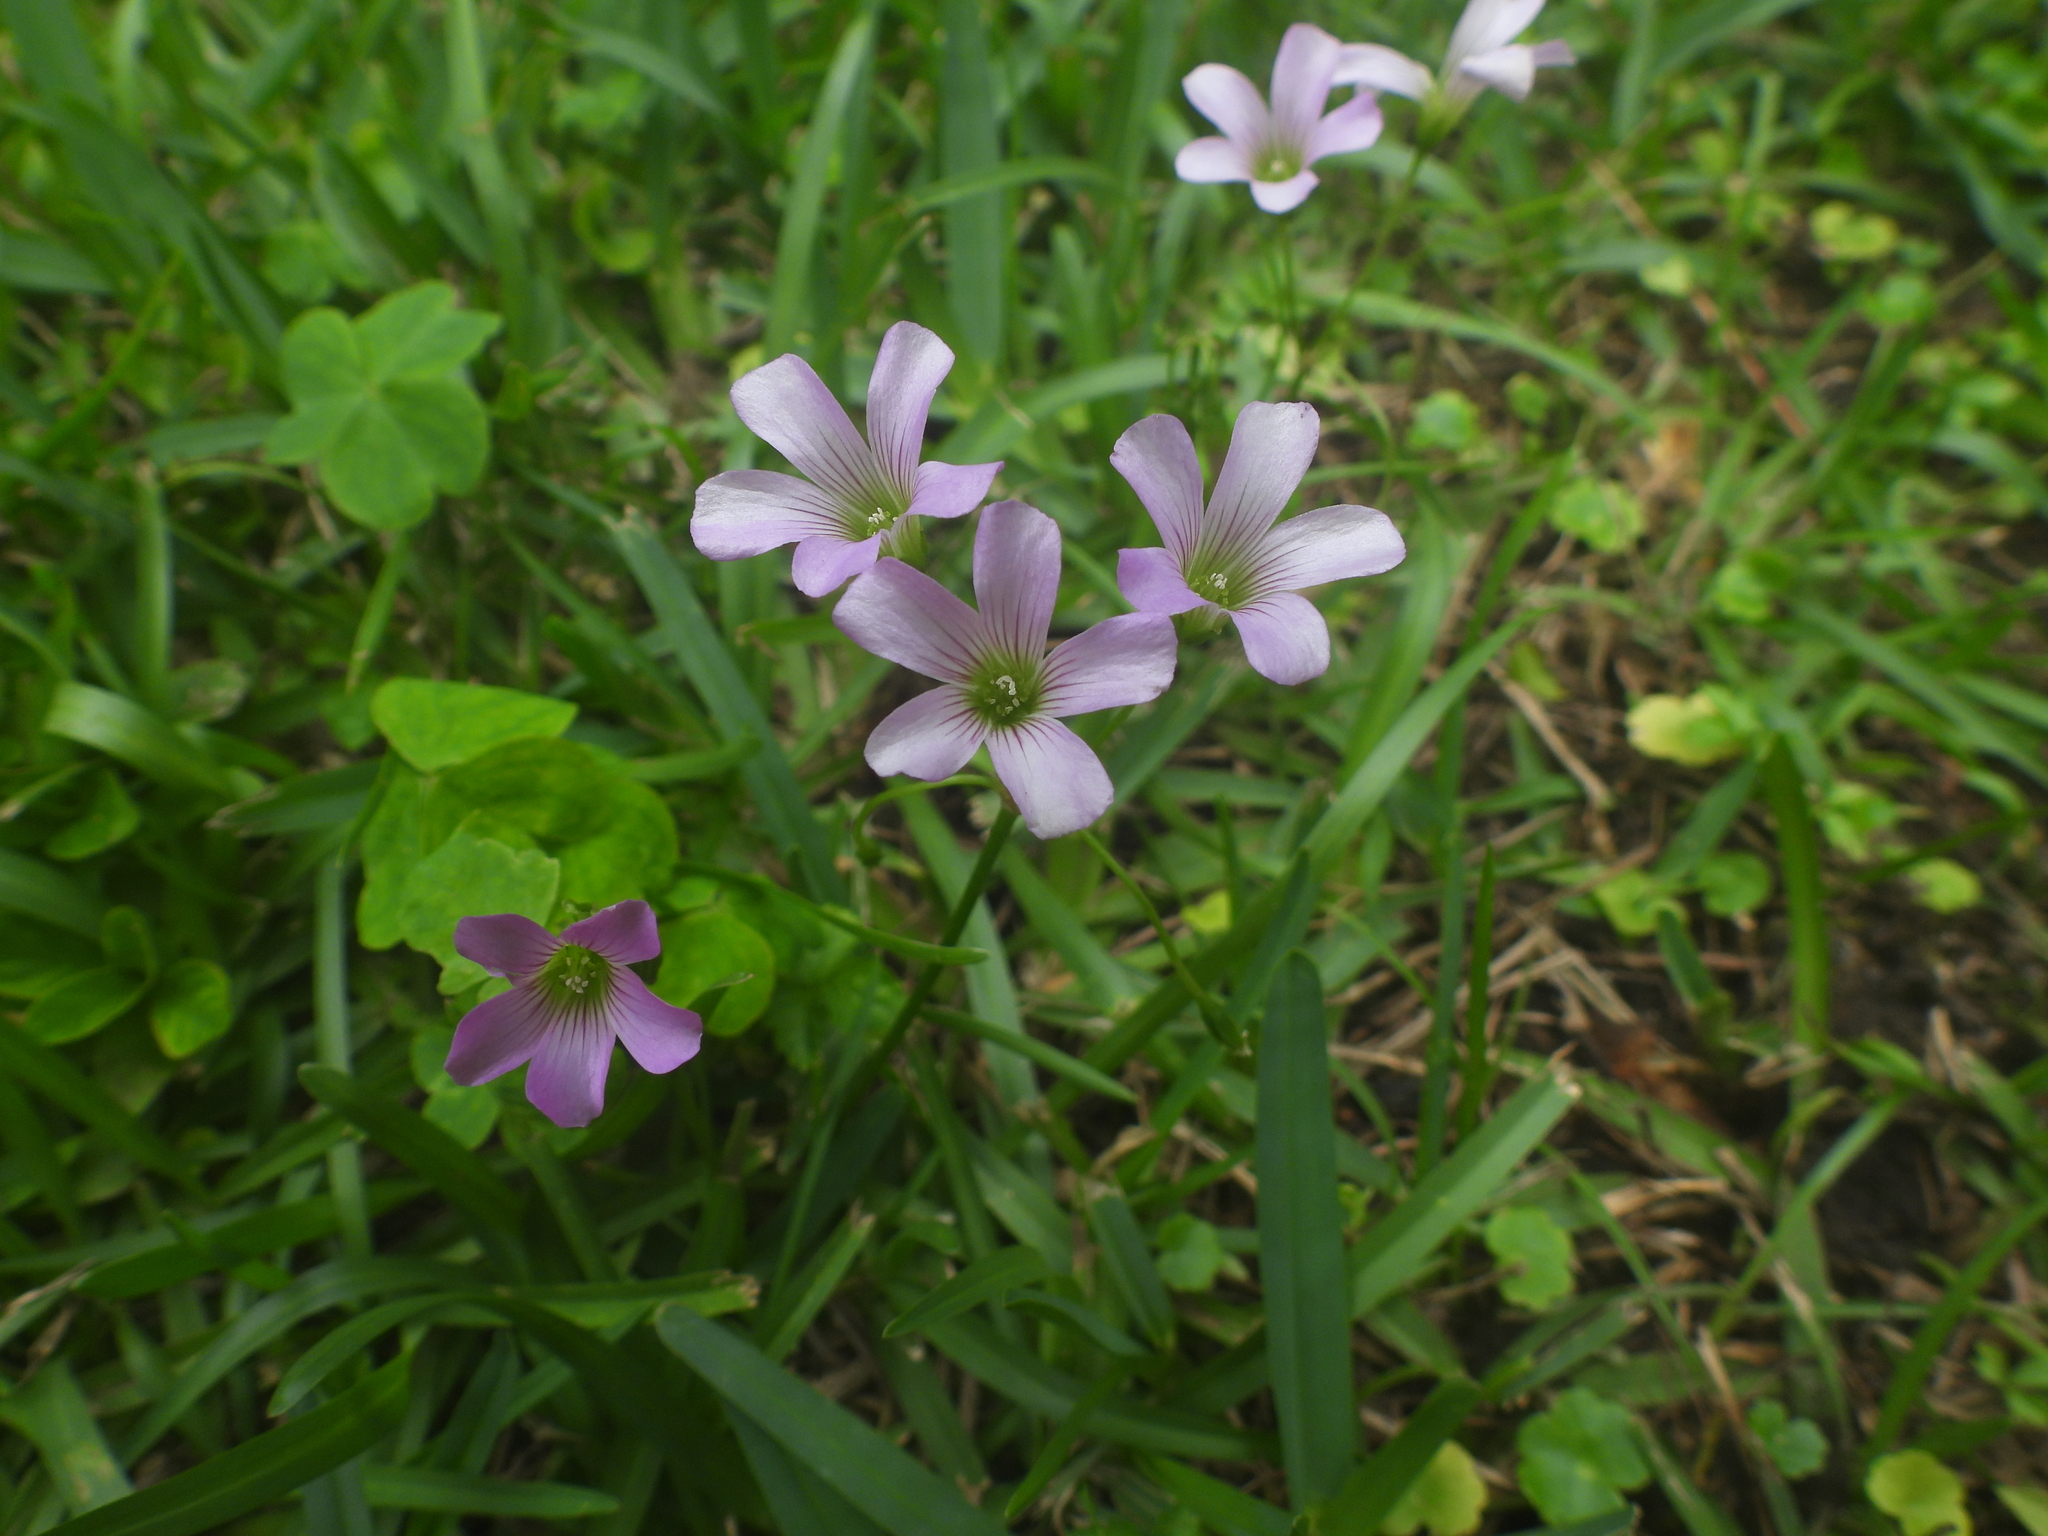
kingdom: Plantae
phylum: Tracheophyta
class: Magnoliopsida
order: Oxalidales
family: Oxalidaceae
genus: Oxalis
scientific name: Oxalis debilis
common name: Large-flowered pink-sorrel
